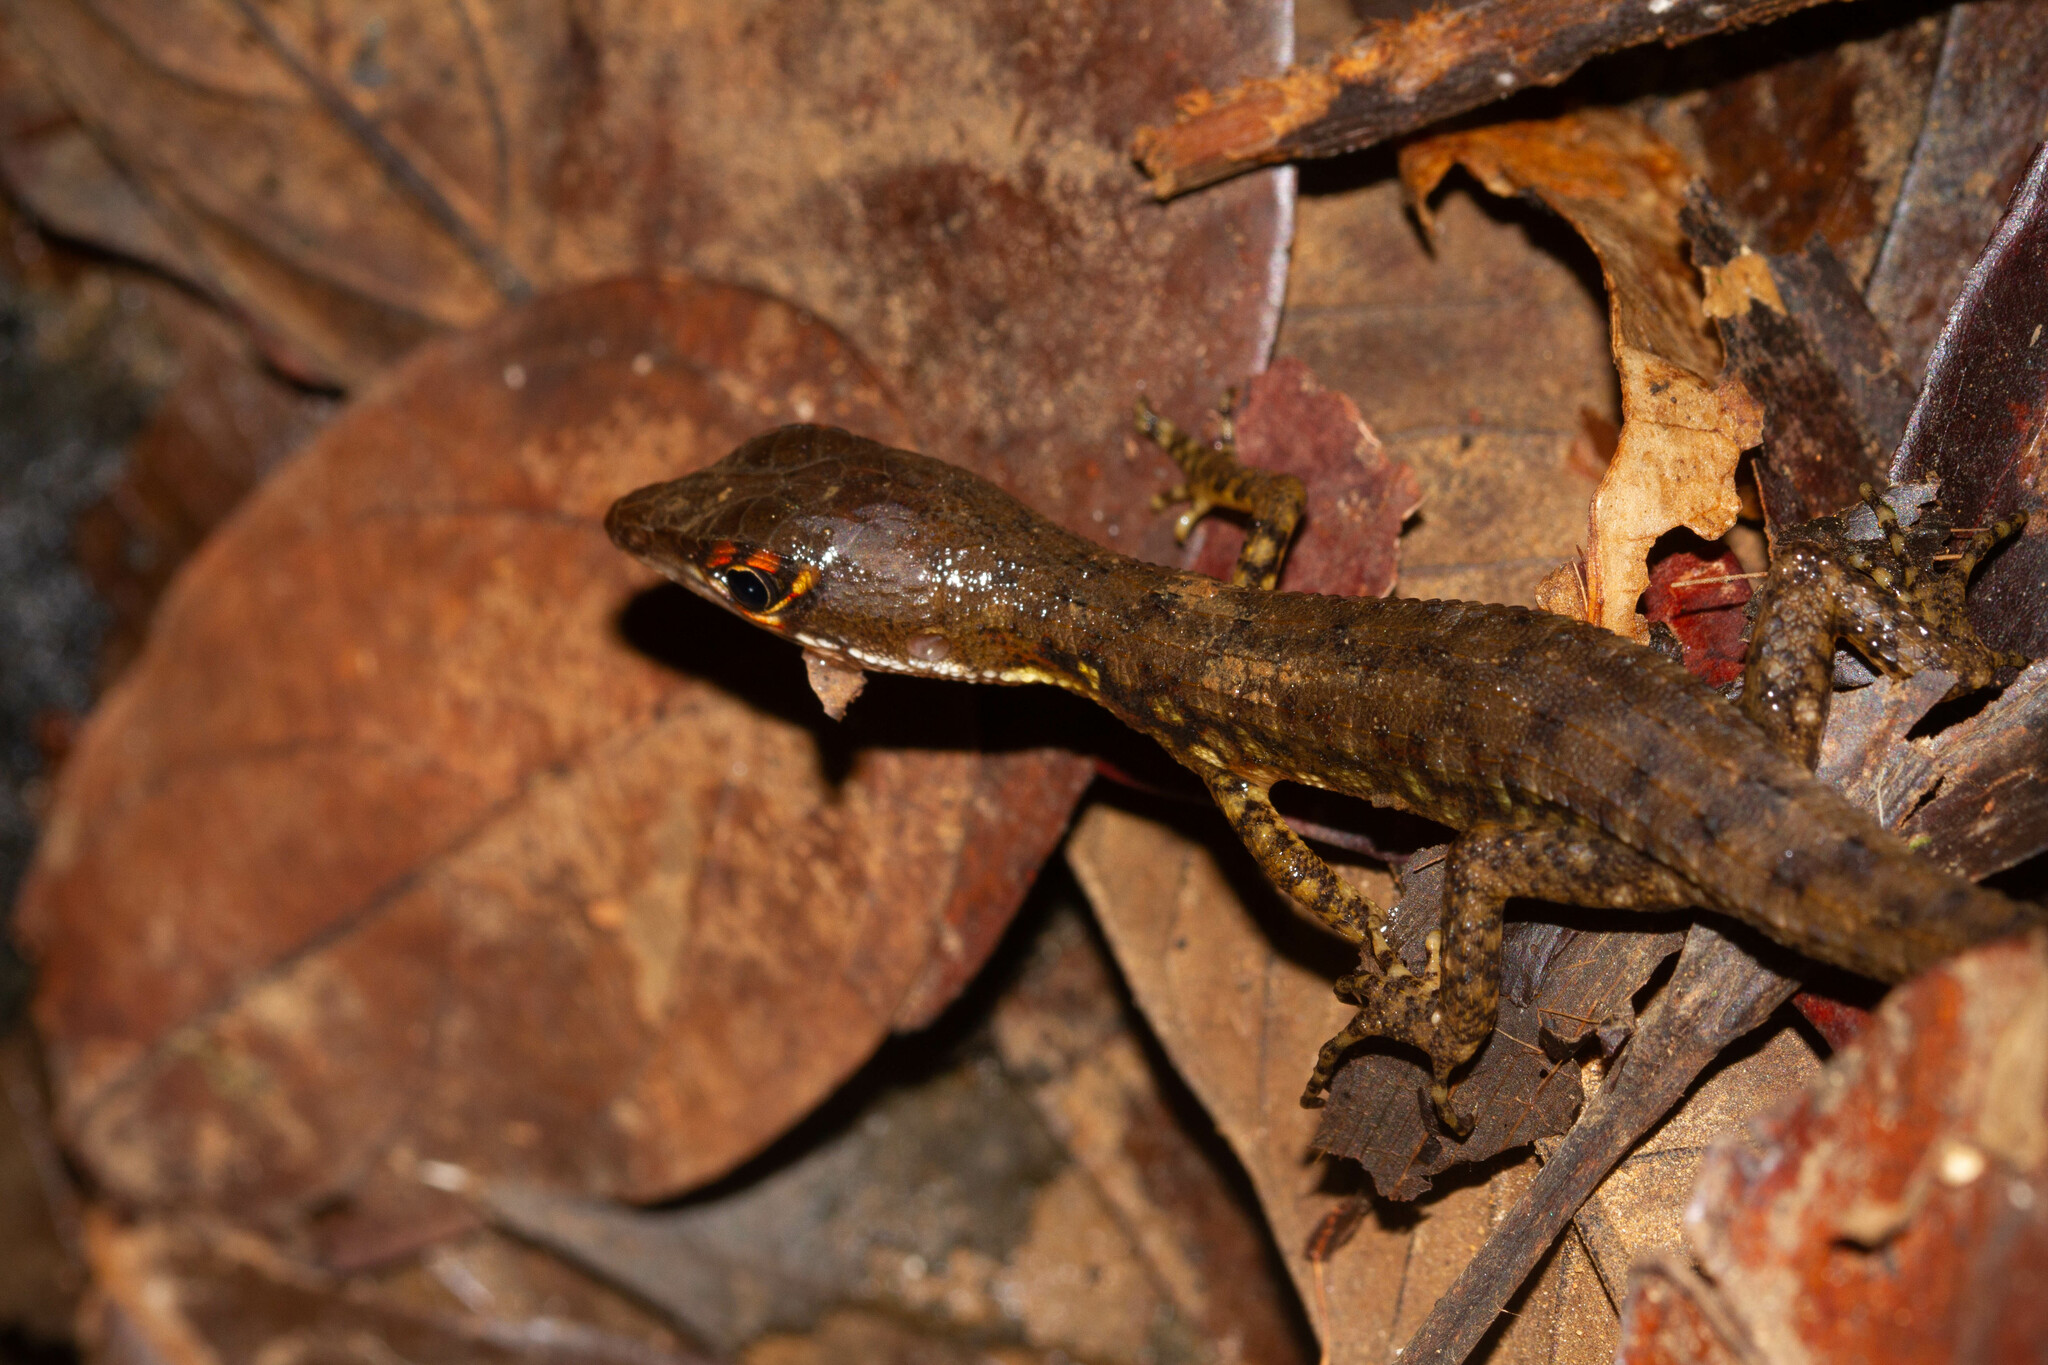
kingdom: Animalia
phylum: Chordata
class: Squamata
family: Gymnophthalmidae
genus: Neusticurus
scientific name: Neusticurus bicarinatus
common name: Two-faced neusticurus
